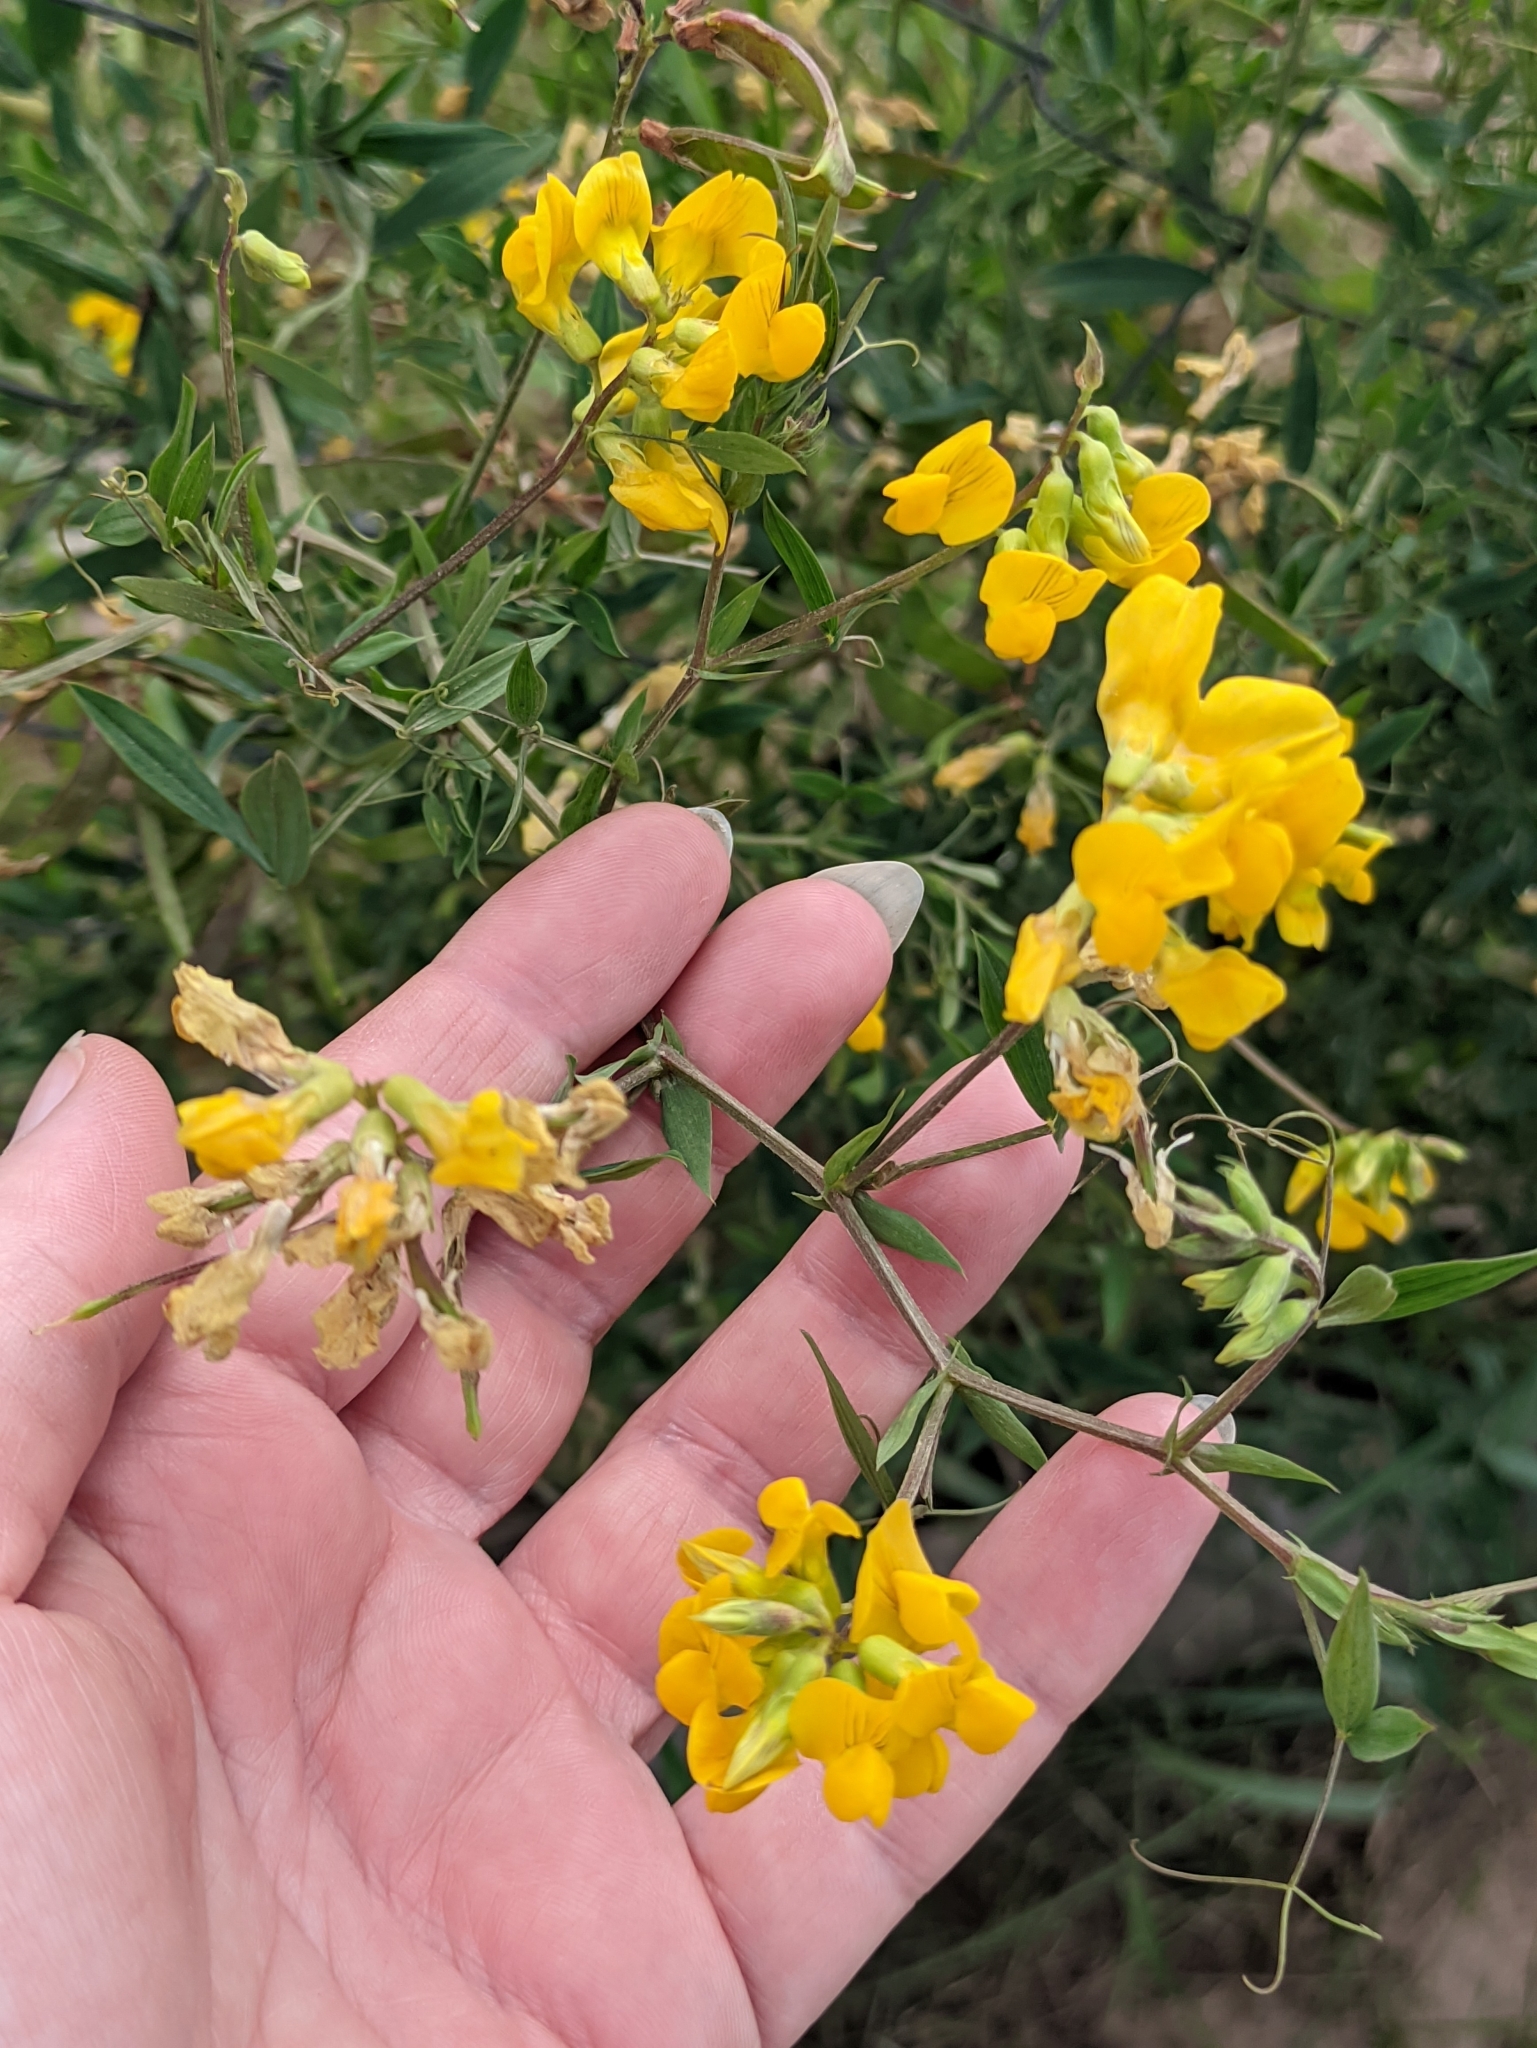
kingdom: Plantae
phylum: Tracheophyta
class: Magnoliopsida
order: Fabales
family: Fabaceae
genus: Lathyrus
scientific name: Lathyrus pratensis
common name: Meadow vetchling
